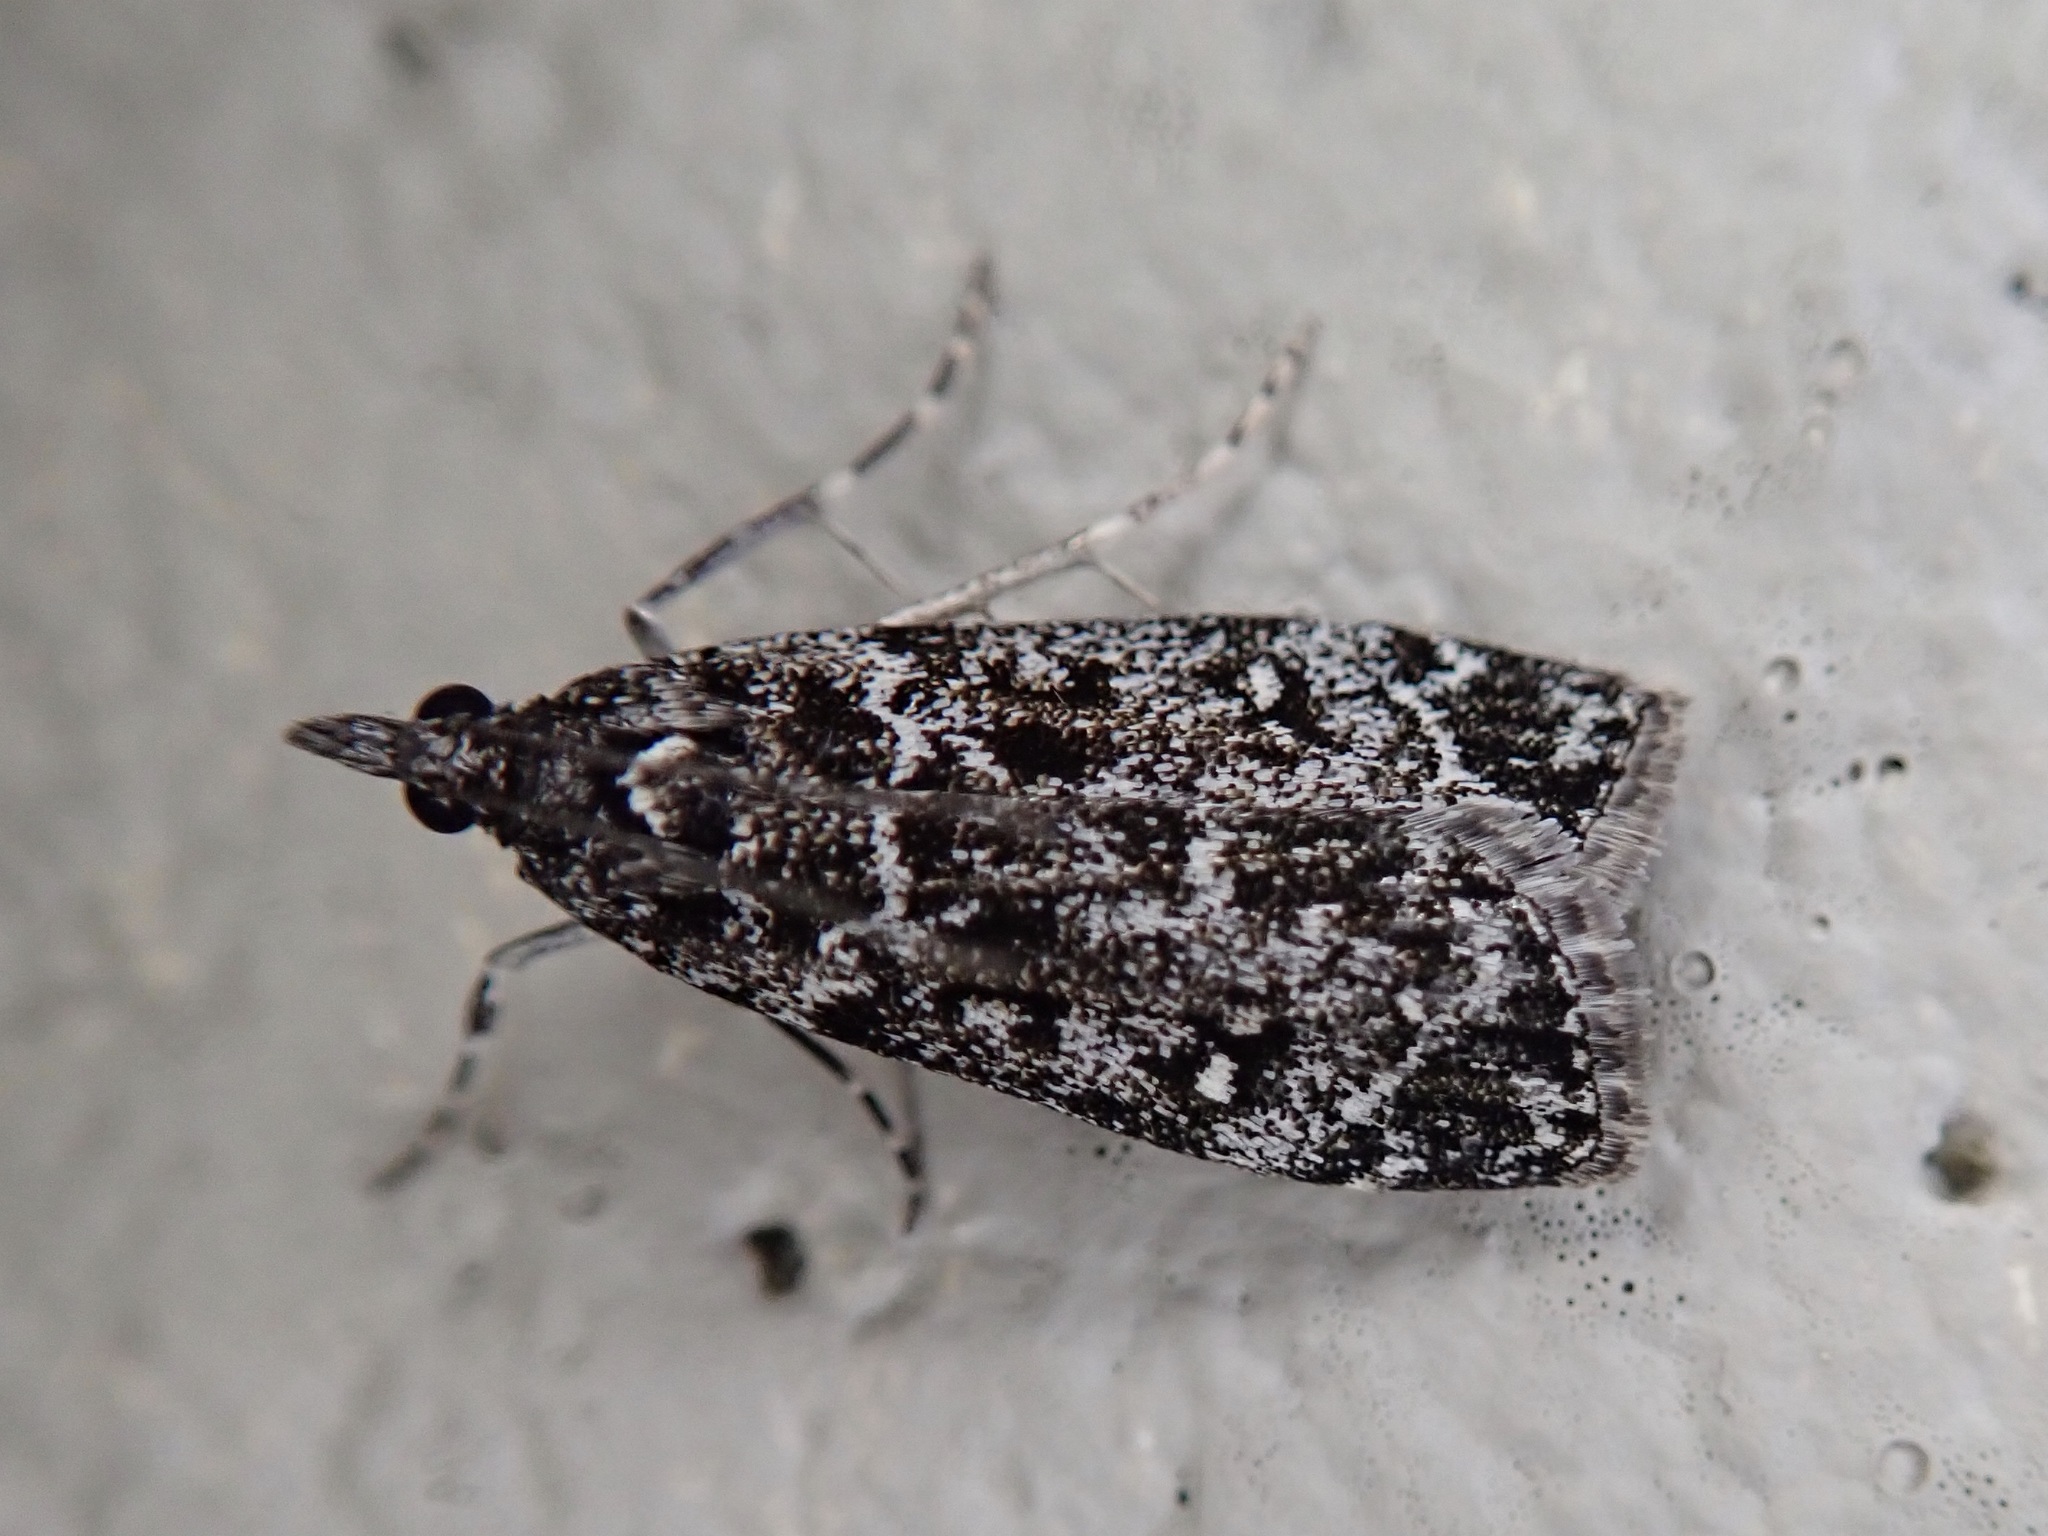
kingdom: Animalia
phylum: Arthropoda
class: Insecta
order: Lepidoptera
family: Crambidae
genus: Eudonia
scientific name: Eudonia philerga
